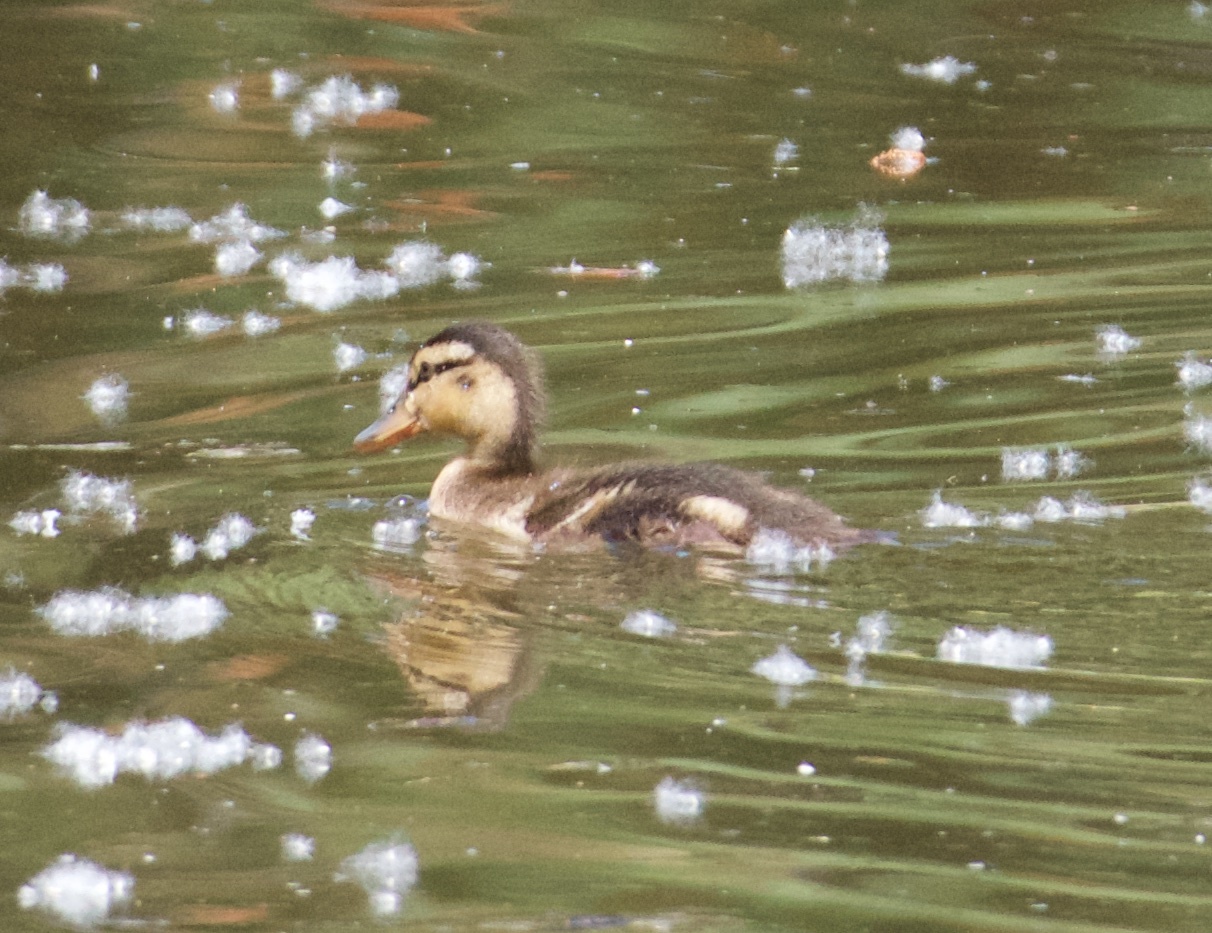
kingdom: Animalia
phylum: Chordata
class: Aves
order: Anseriformes
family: Anatidae
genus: Anas
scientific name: Anas platyrhynchos
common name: Mallard
